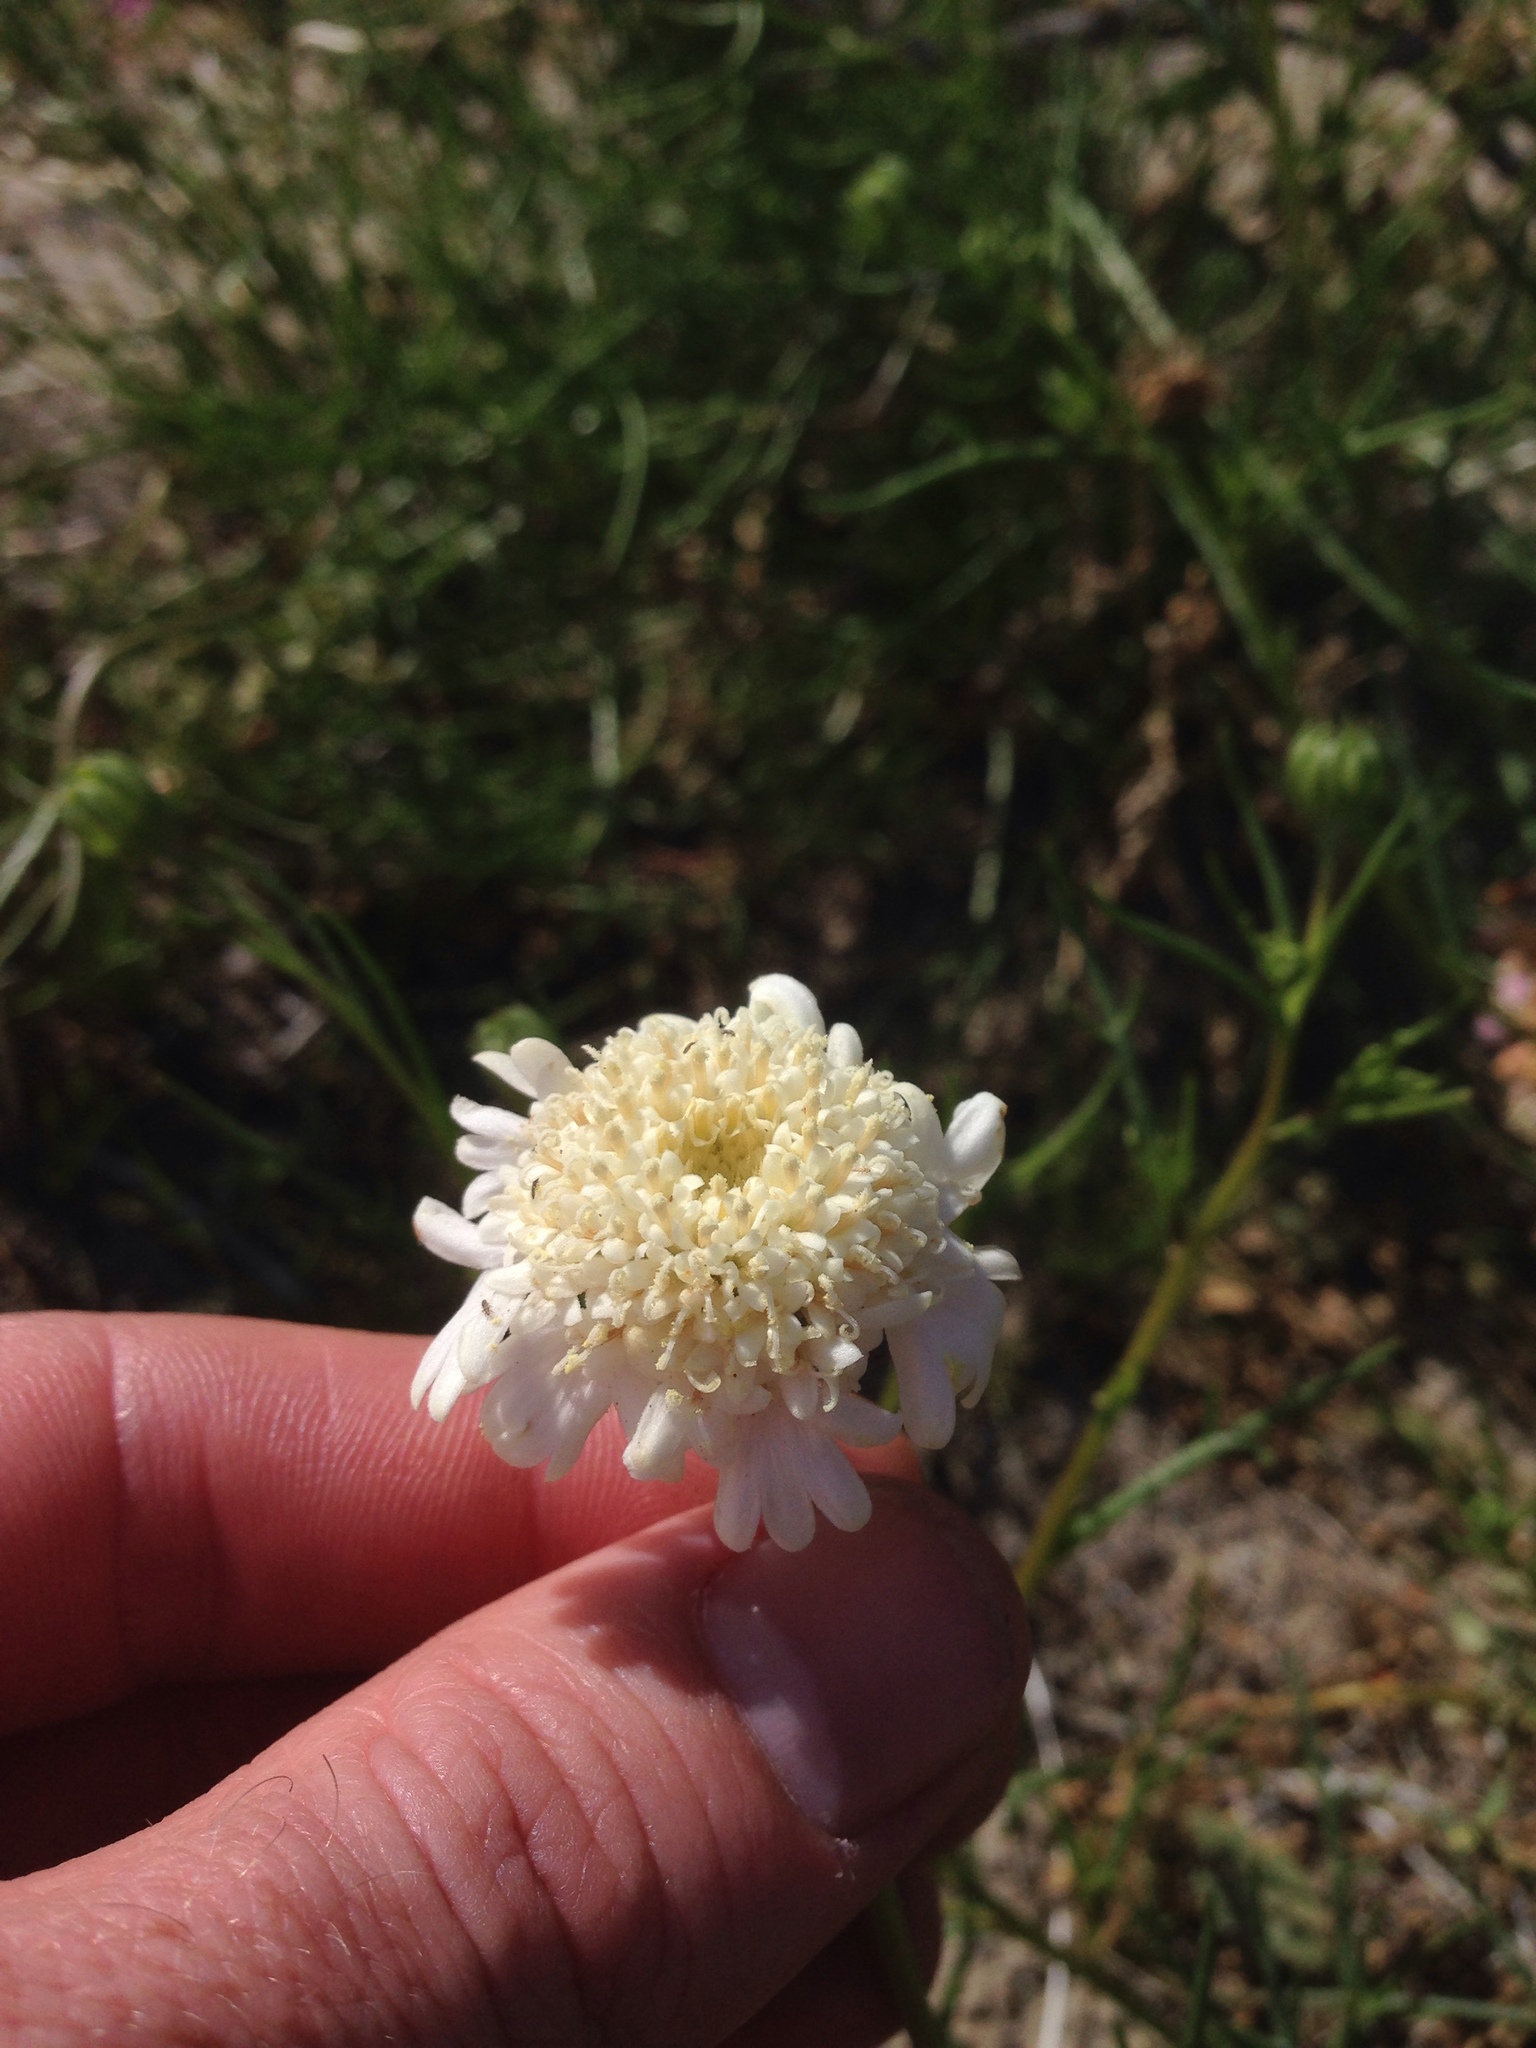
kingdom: Plantae
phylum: Tracheophyta
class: Magnoliopsida
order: Asterales
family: Asteraceae
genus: Chaenactis
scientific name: Chaenactis fremontii
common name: Fremont pincushion
